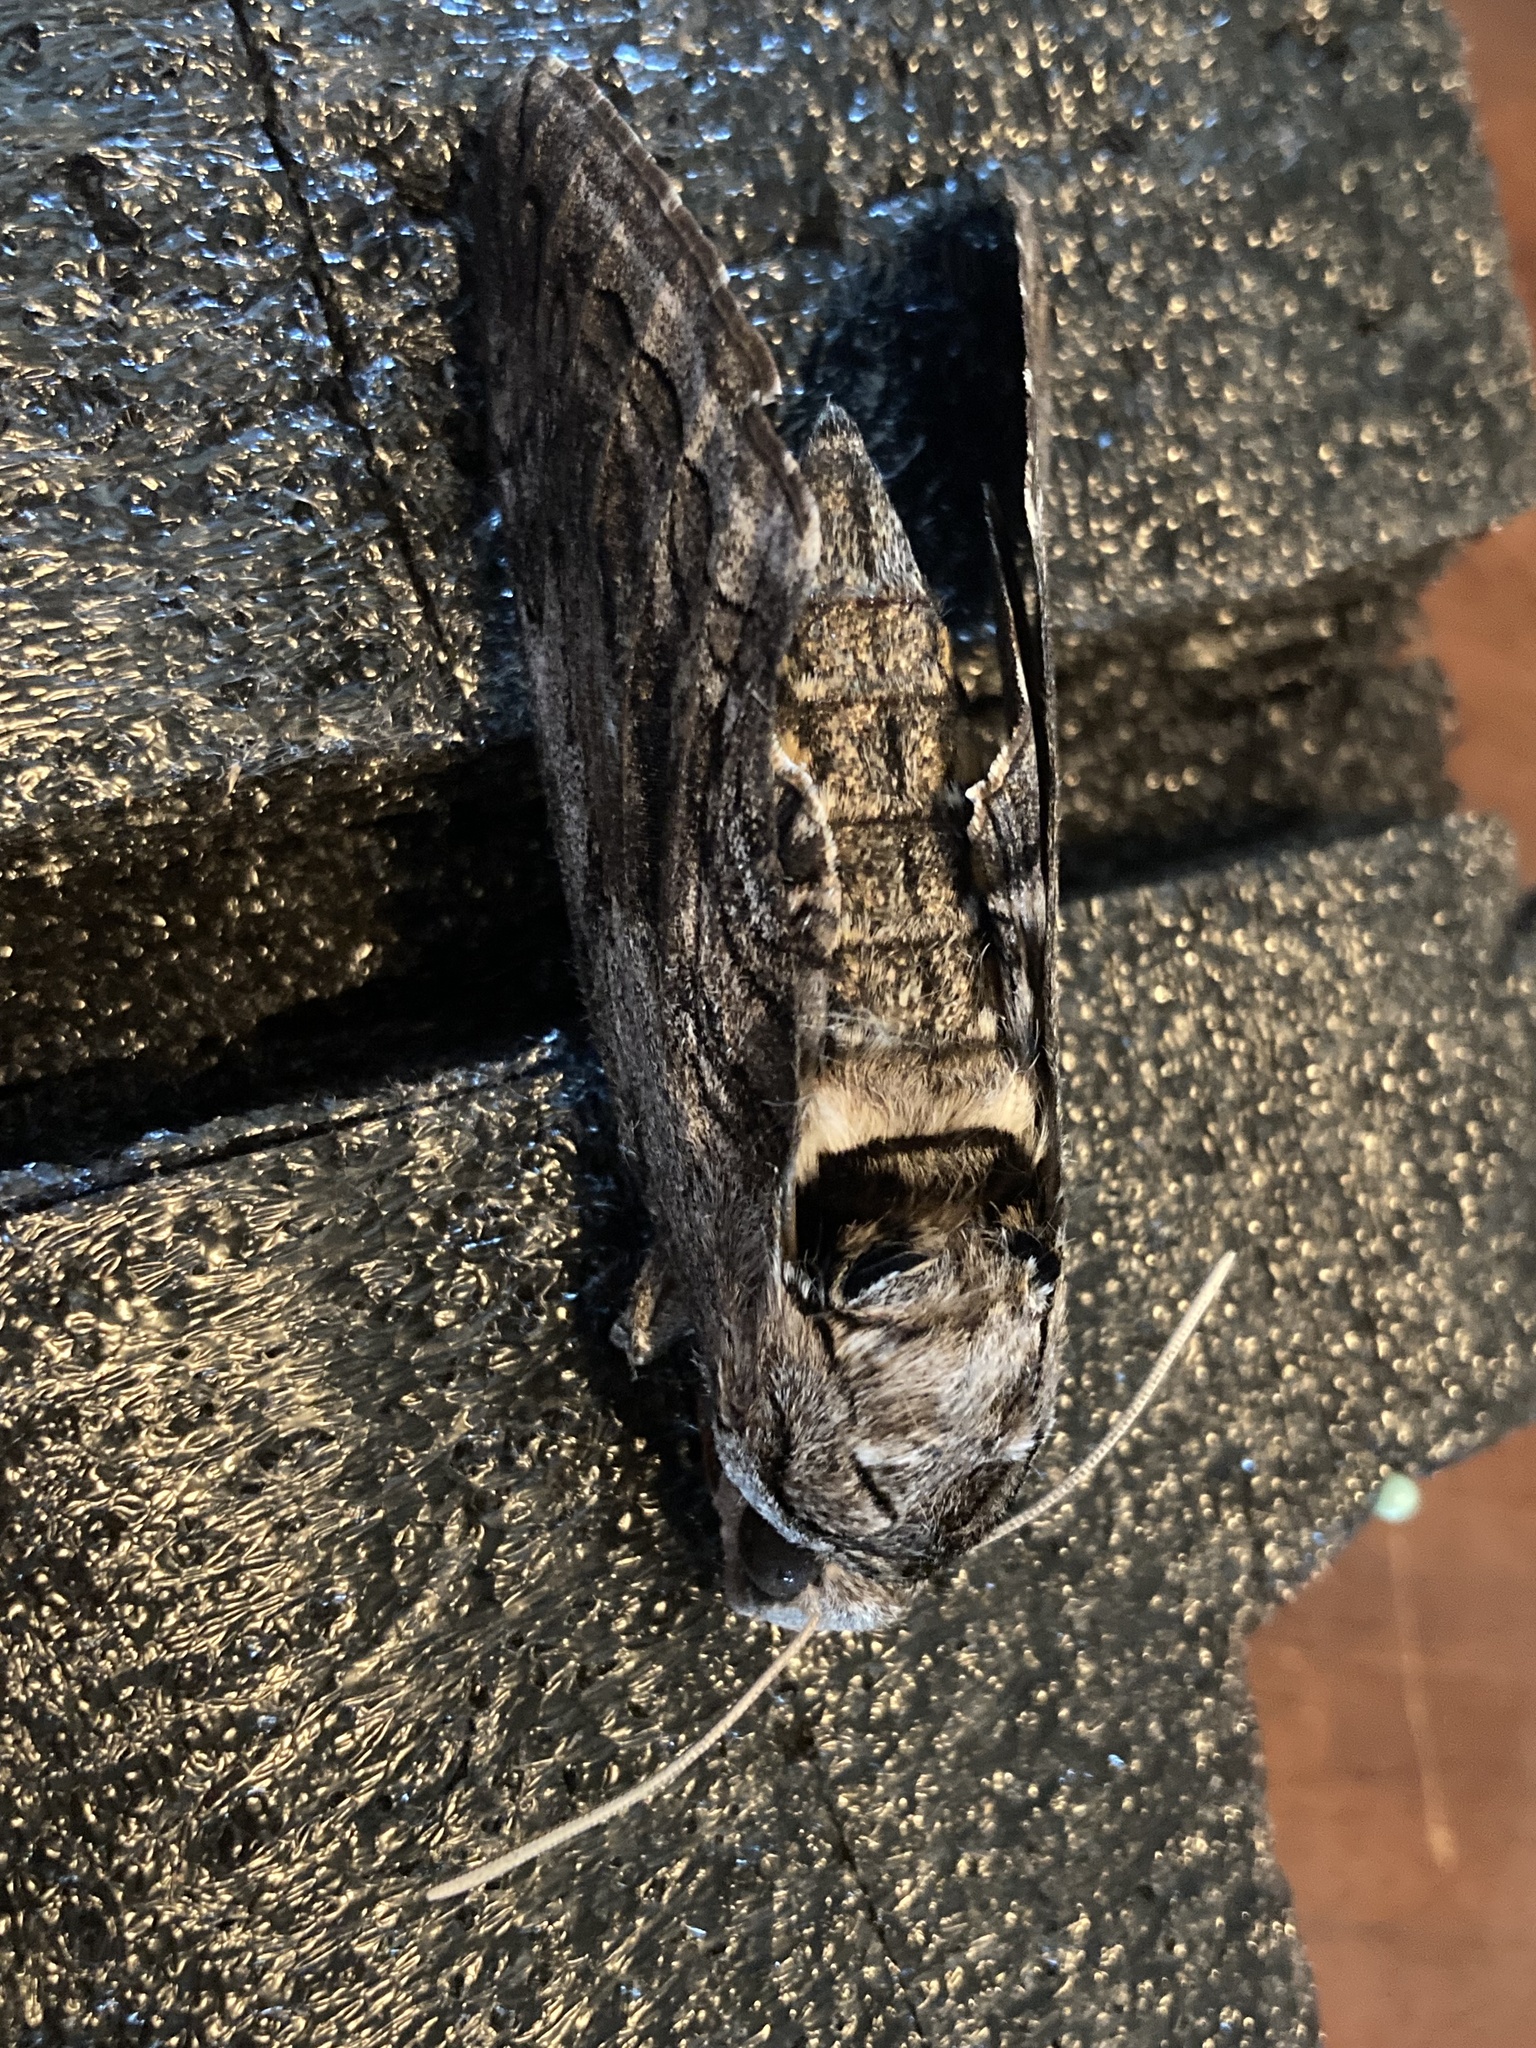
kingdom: Animalia
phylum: Arthropoda
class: Insecta
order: Lepidoptera
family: Sphingidae
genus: Manduca
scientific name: Manduca quinquemaculatus
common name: Five-spotted hawk-moth
